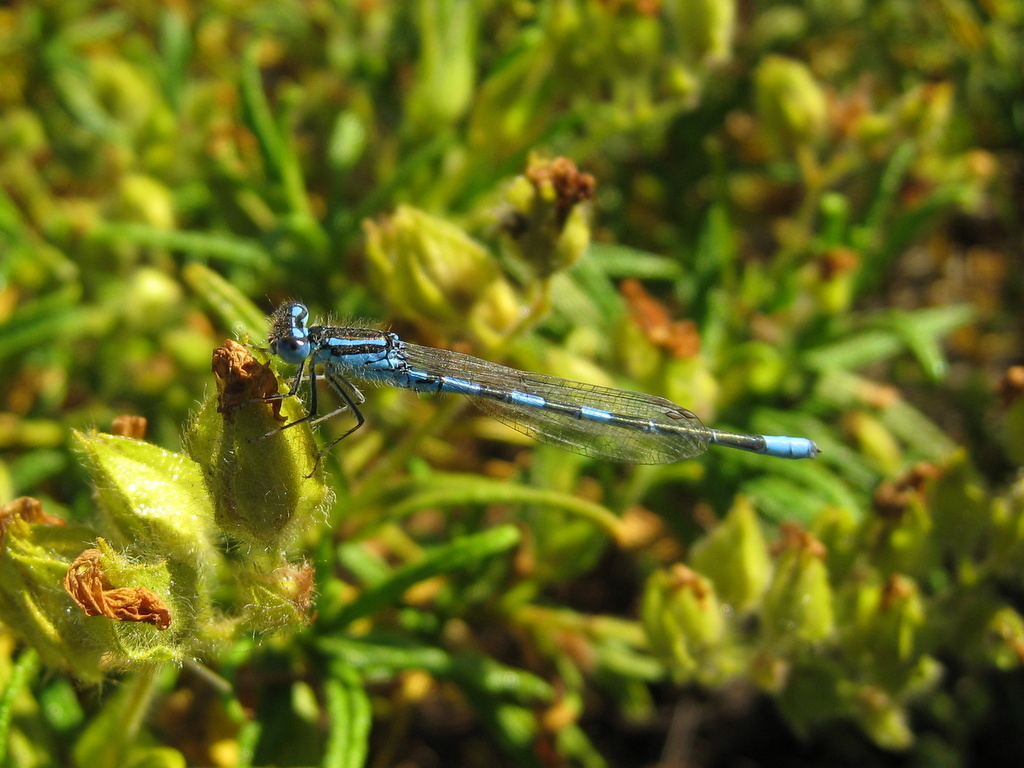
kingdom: Animalia
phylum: Arthropoda
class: Insecta
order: Odonata
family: Coenagrionidae
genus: Coenagrion
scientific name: Coenagrion scitulum
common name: Dainty bluet
